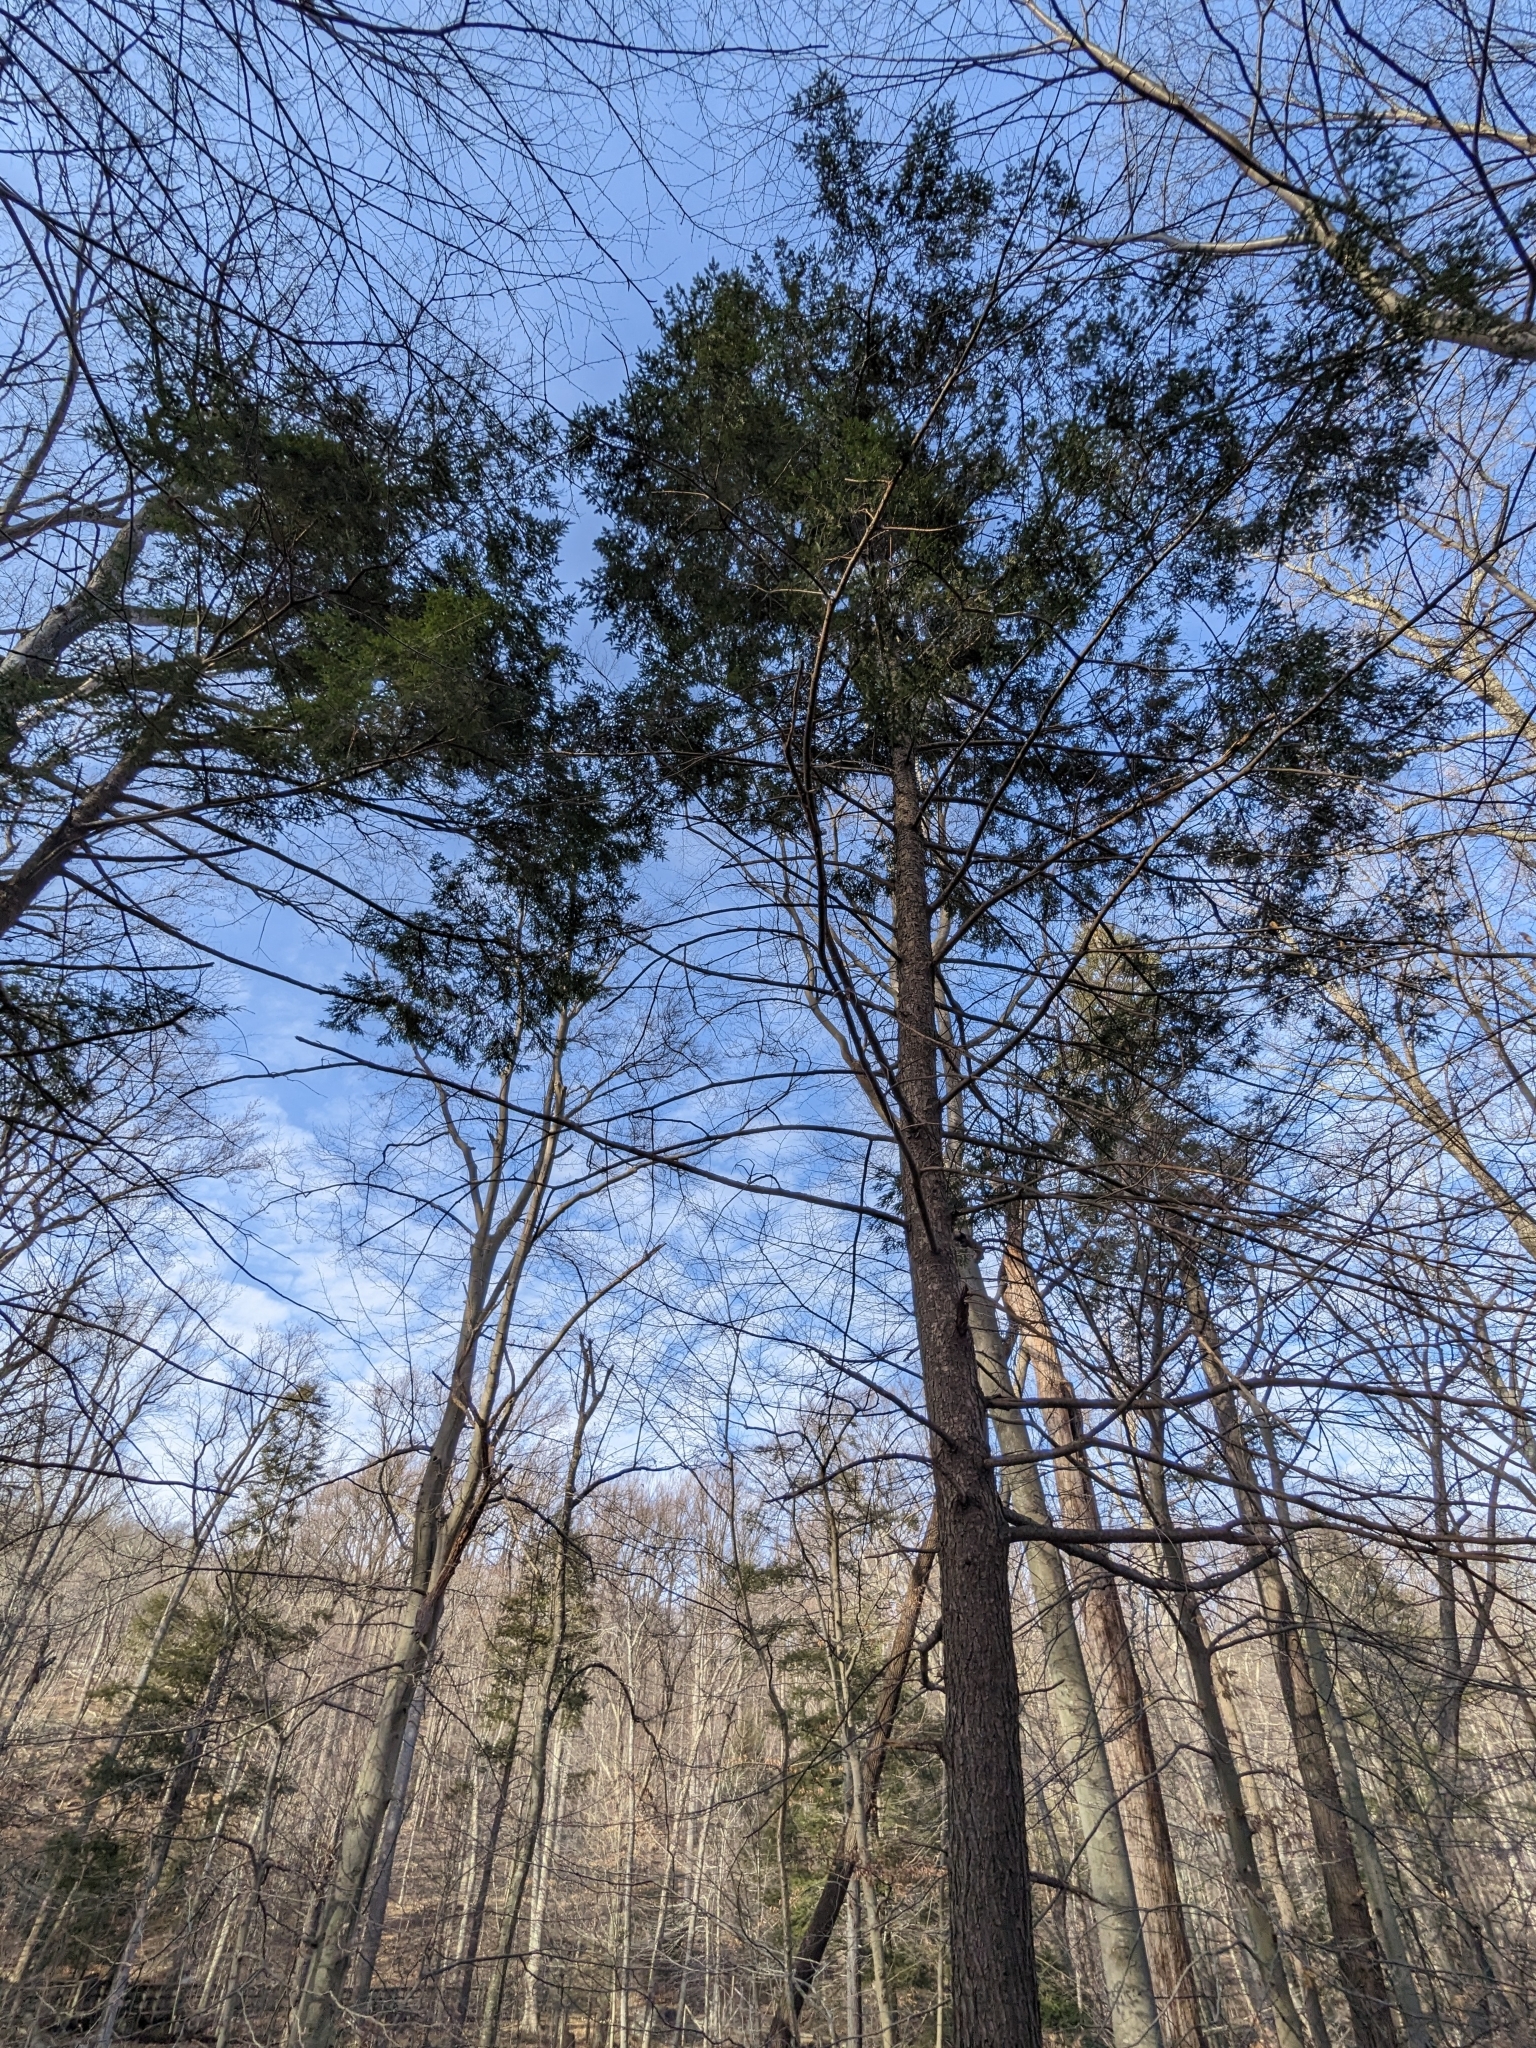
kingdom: Plantae
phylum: Tracheophyta
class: Pinopsida
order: Pinales
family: Pinaceae
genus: Tsuga
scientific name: Tsuga canadensis
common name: Eastern hemlock
